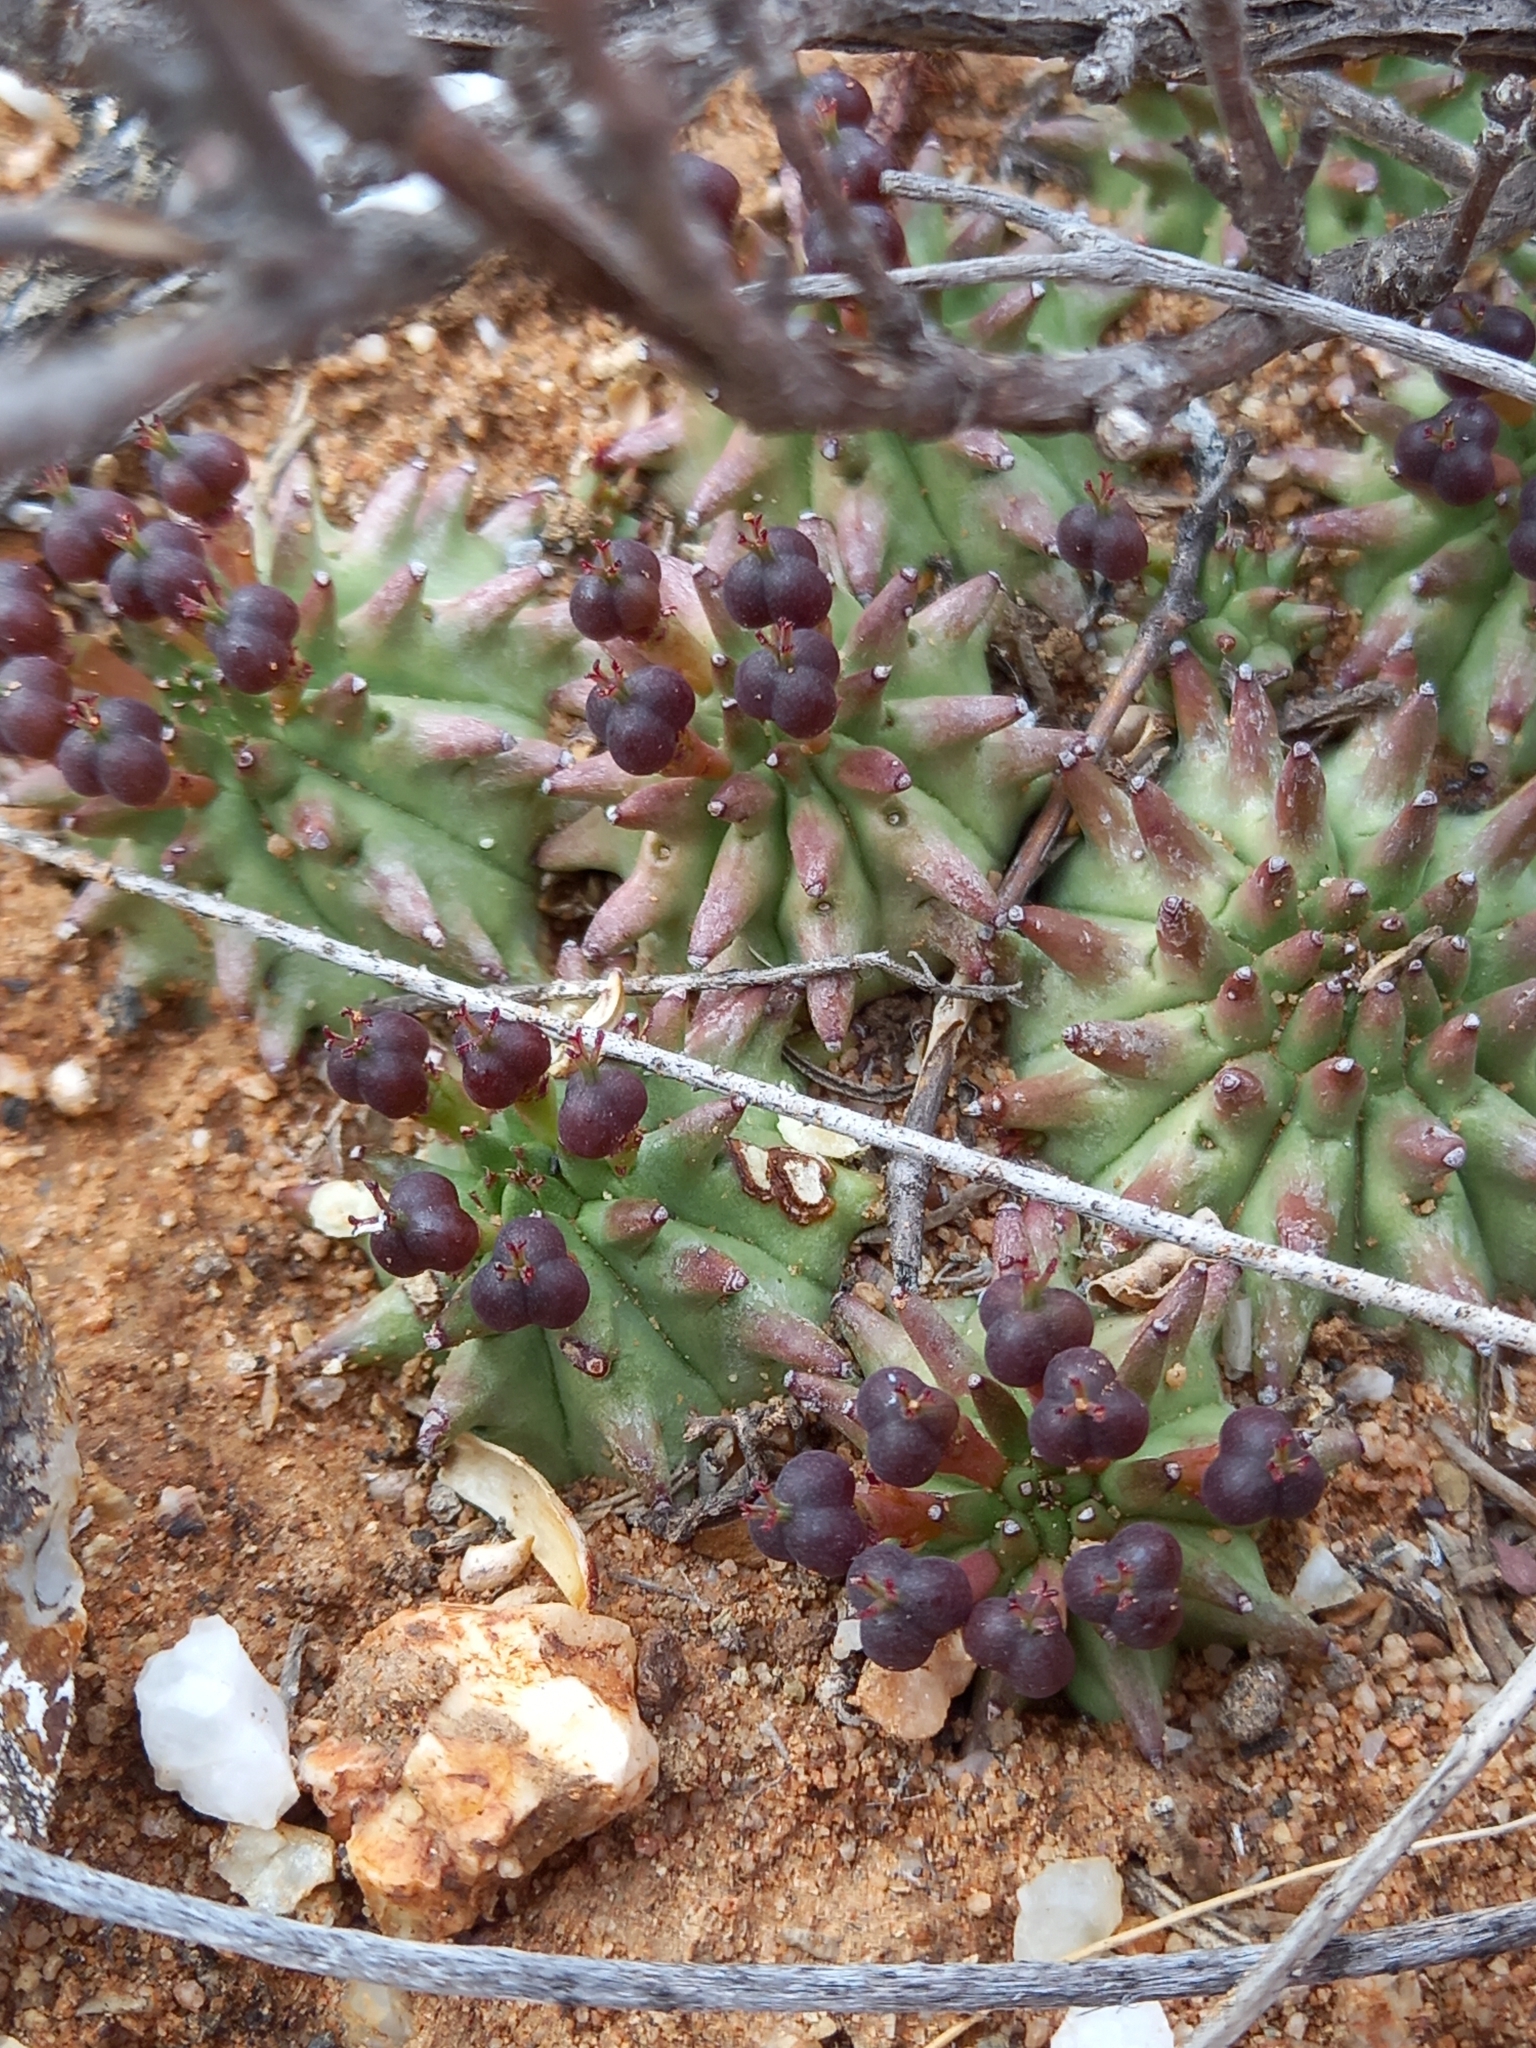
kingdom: Plantae
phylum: Tracheophyta
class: Magnoliopsida
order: Malpighiales
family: Euphorbiaceae
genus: Euphorbia
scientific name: Euphorbia susannae
